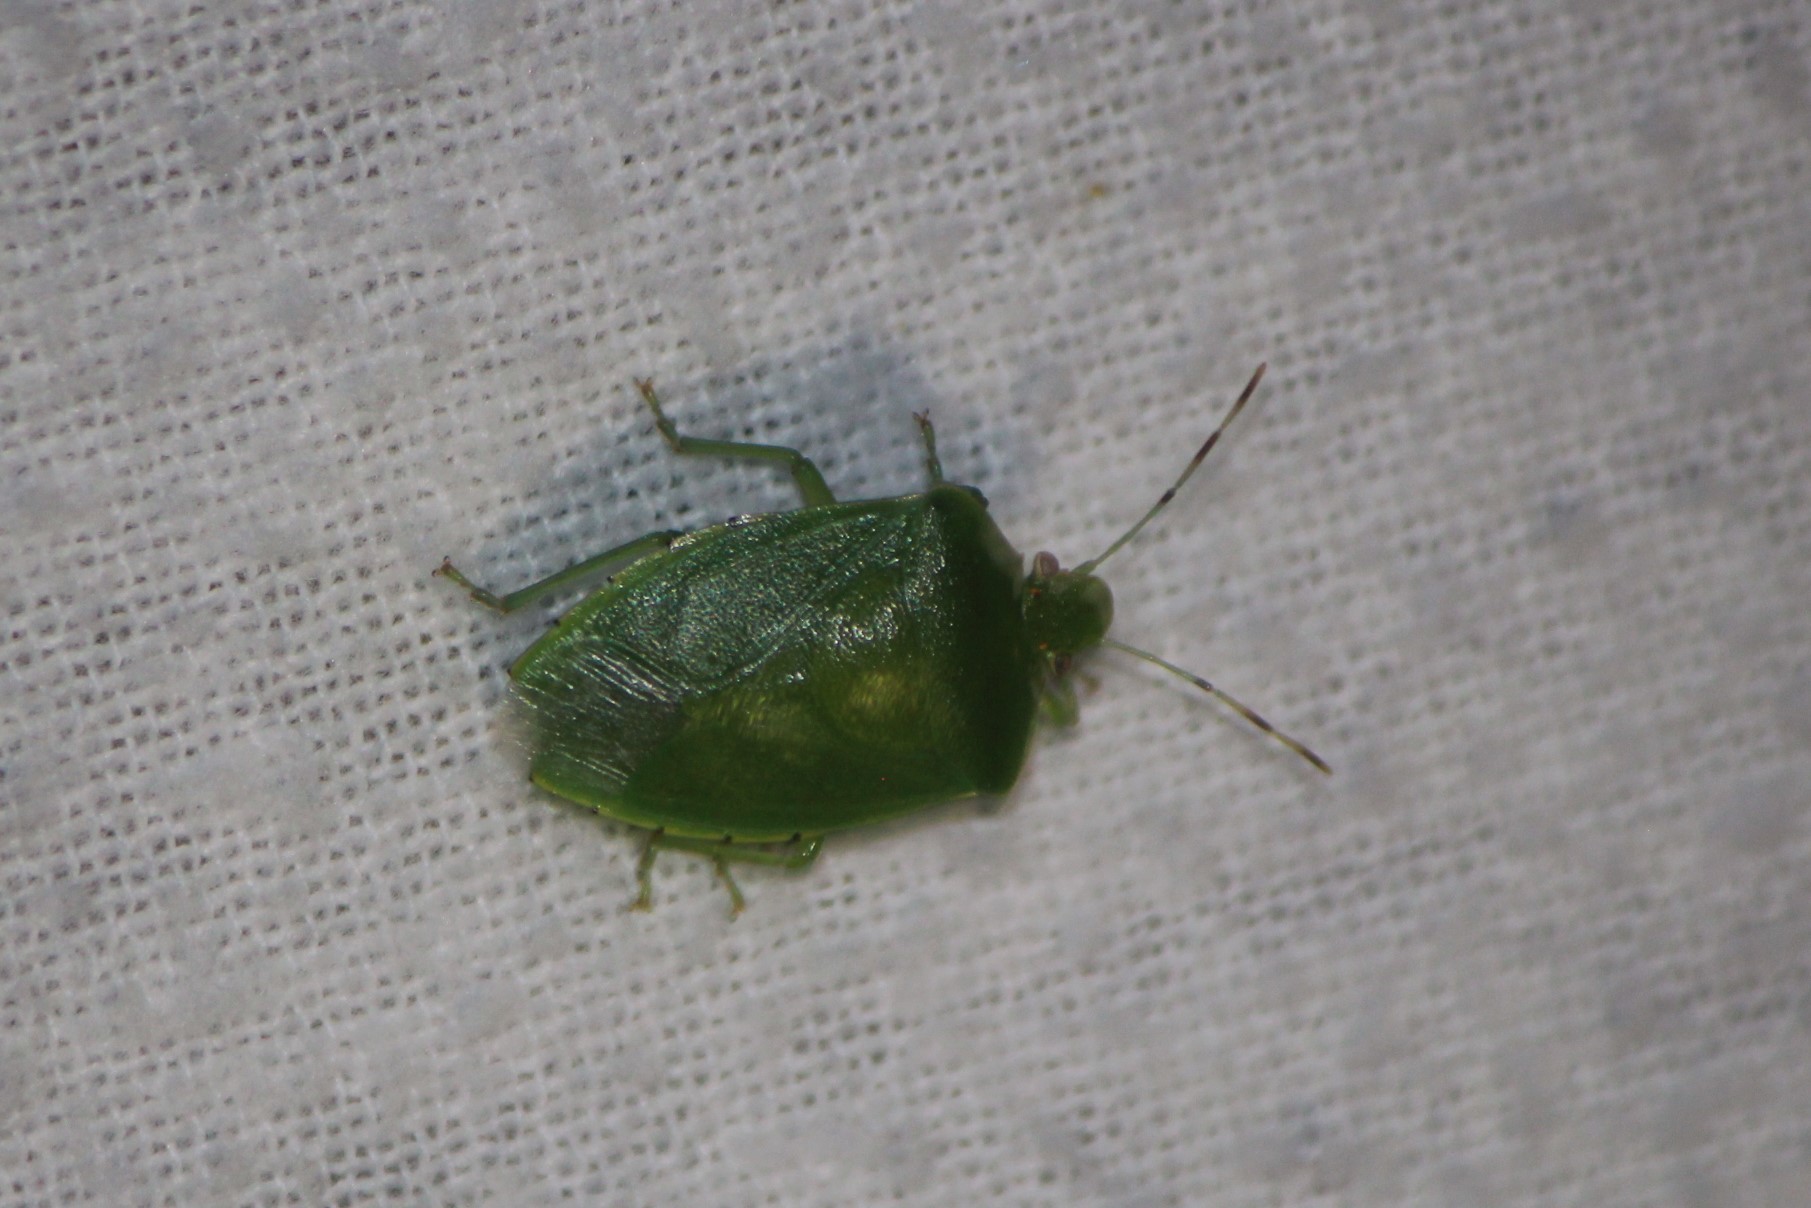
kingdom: Animalia
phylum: Arthropoda
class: Insecta
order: Hemiptera
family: Pentatomidae
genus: Chinavia
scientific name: Chinavia hilaris
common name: Green stink bug
